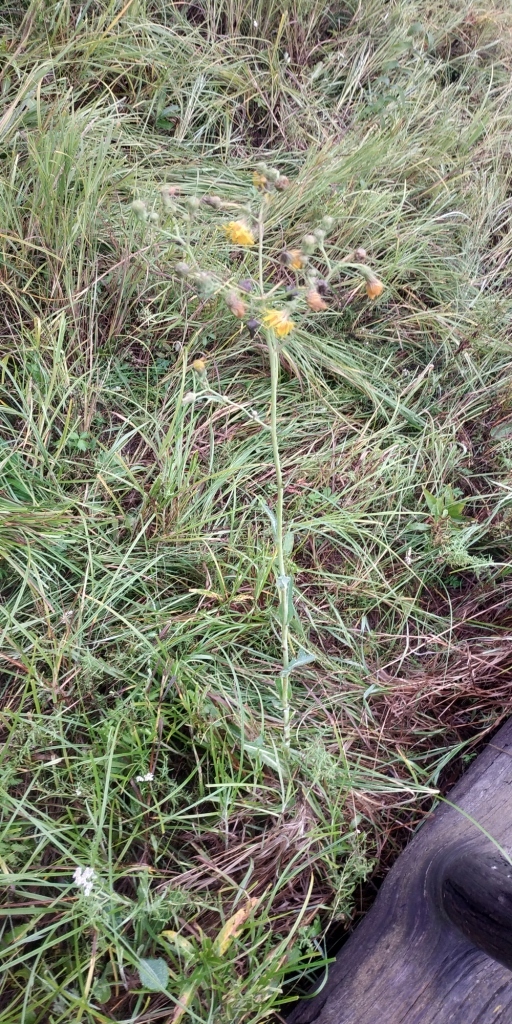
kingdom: Plantae
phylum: Tracheophyta
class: Magnoliopsida
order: Asterales
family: Asteraceae
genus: Sonchus
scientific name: Sonchus arvensis
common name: Perennial sow-thistle
